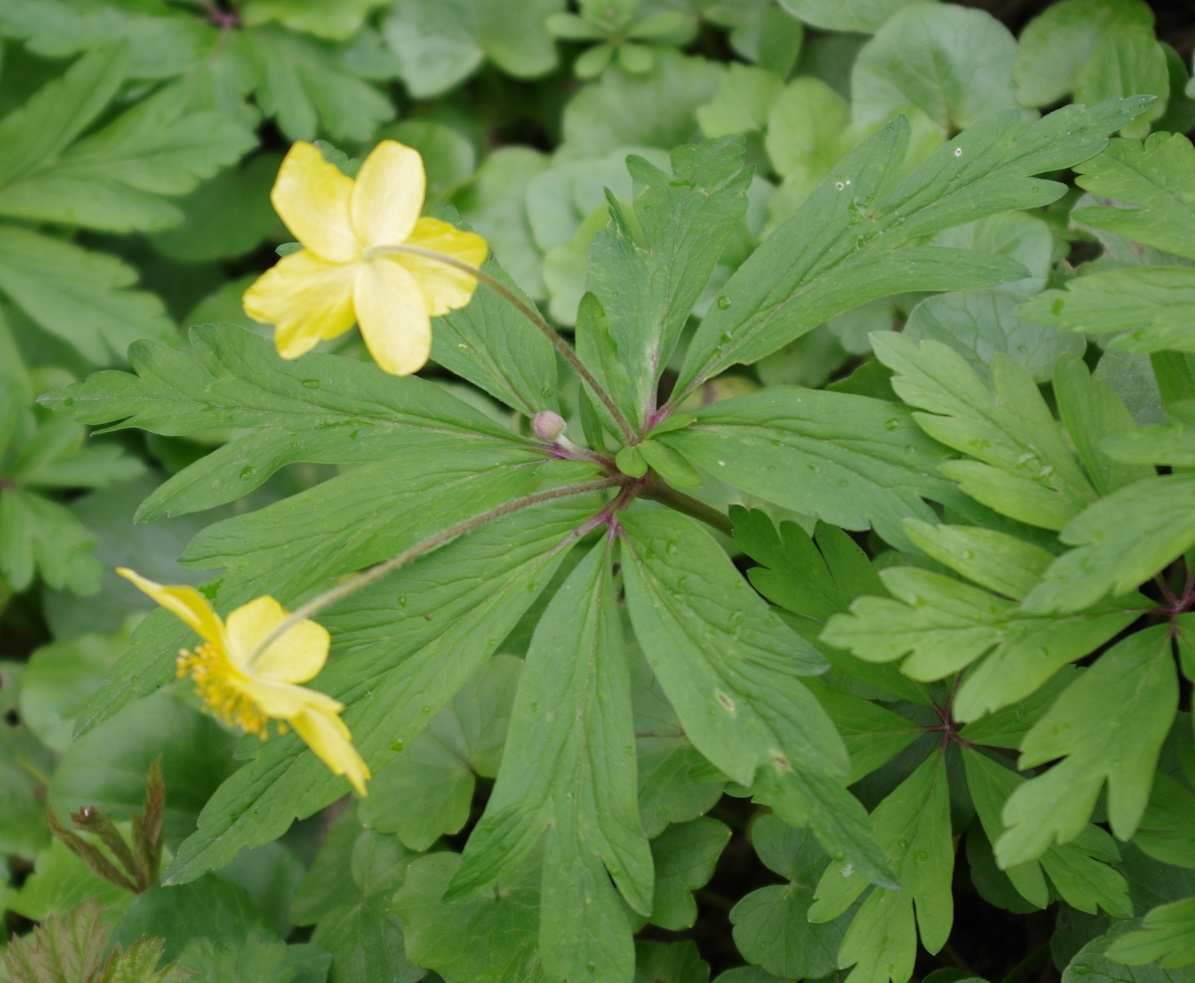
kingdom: Plantae
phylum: Tracheophyta
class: Magnoliopsida
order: Ranunculales
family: Ranunculaceae
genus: Anemone
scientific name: Anemone ranunculoides
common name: Yellow anemone
